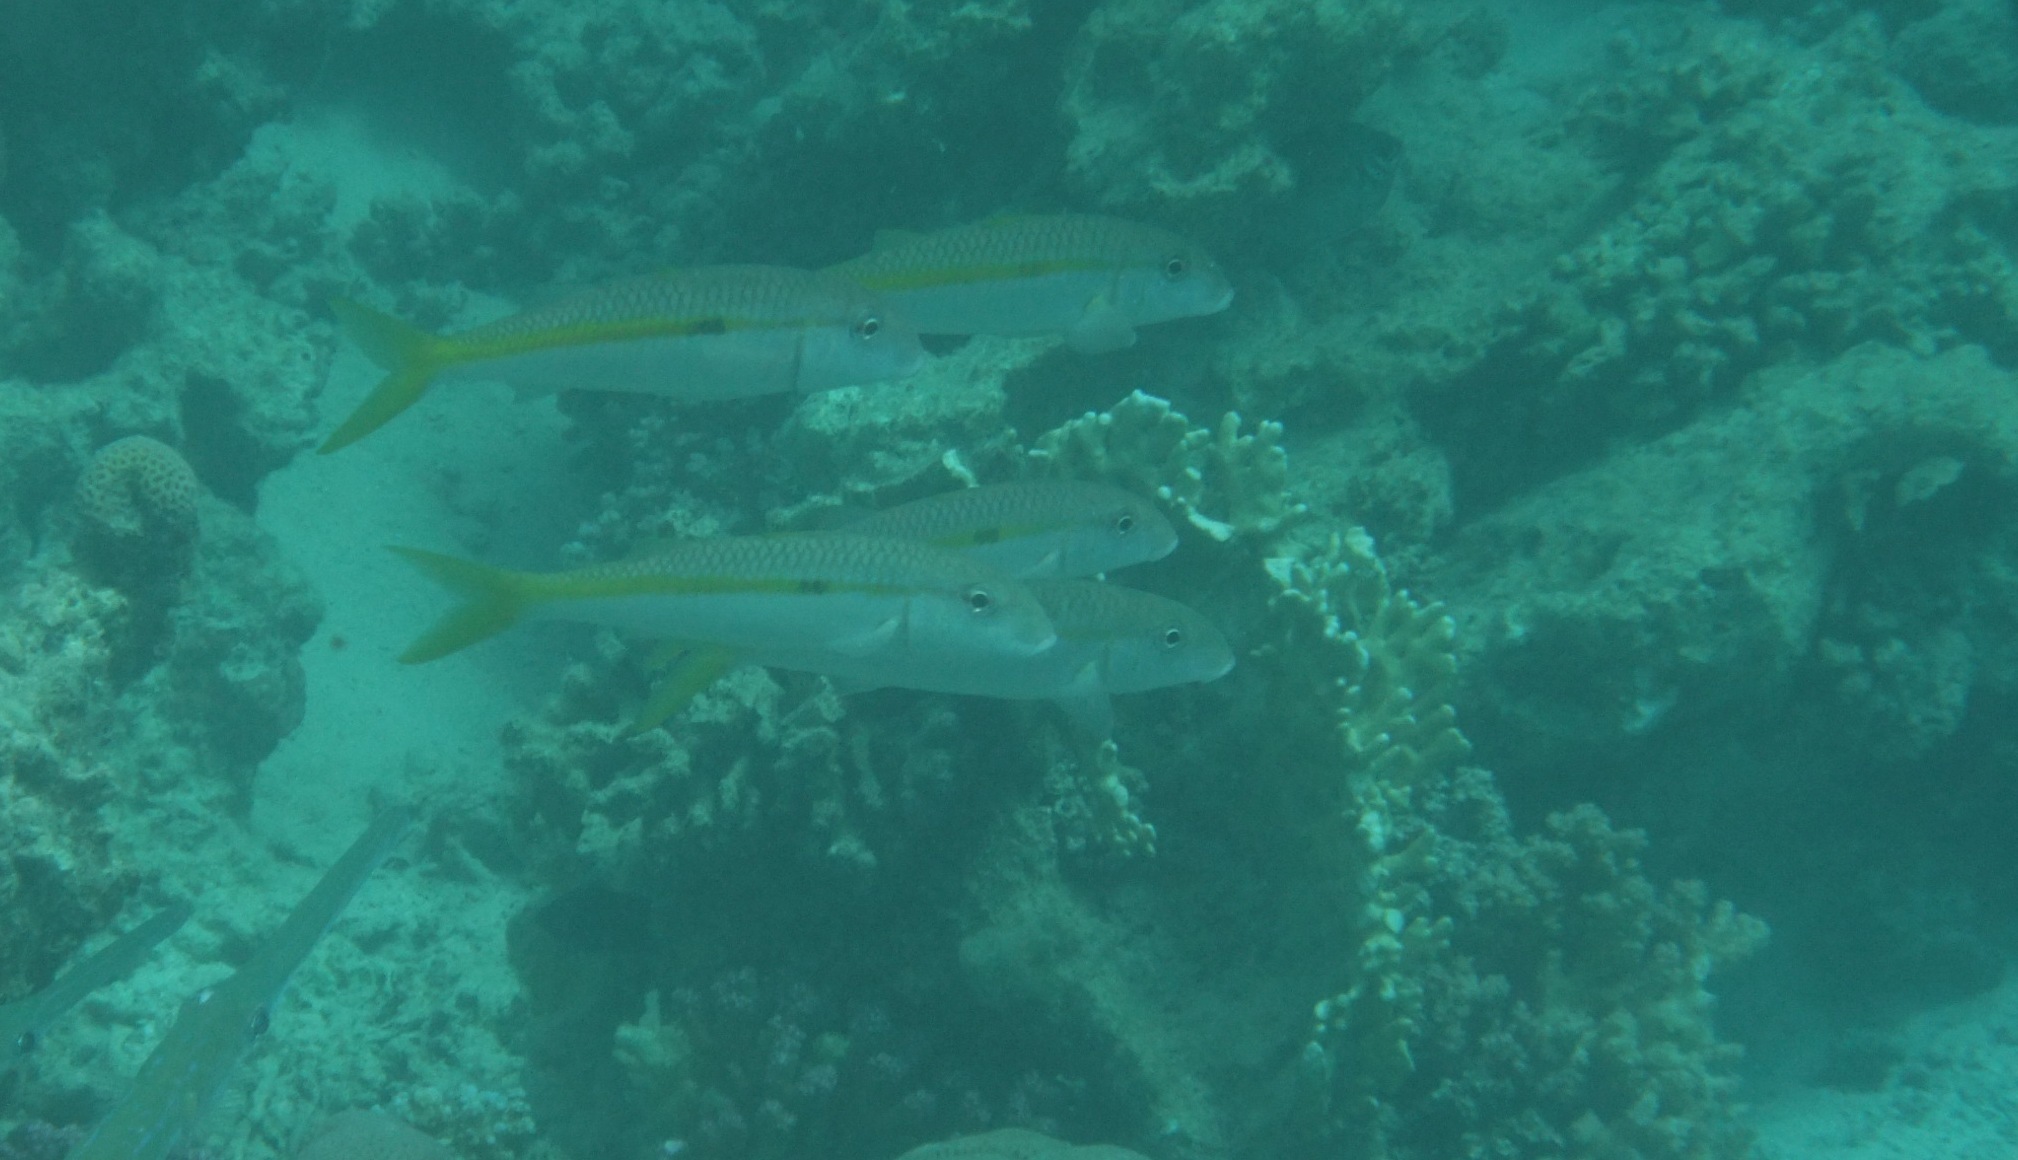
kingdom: Animalia
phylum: Chordata
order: Perciformes
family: Mullidae
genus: Mulloidichthys
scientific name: Mulloidichthys flavolineatus
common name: Yellowstripe goatfish
